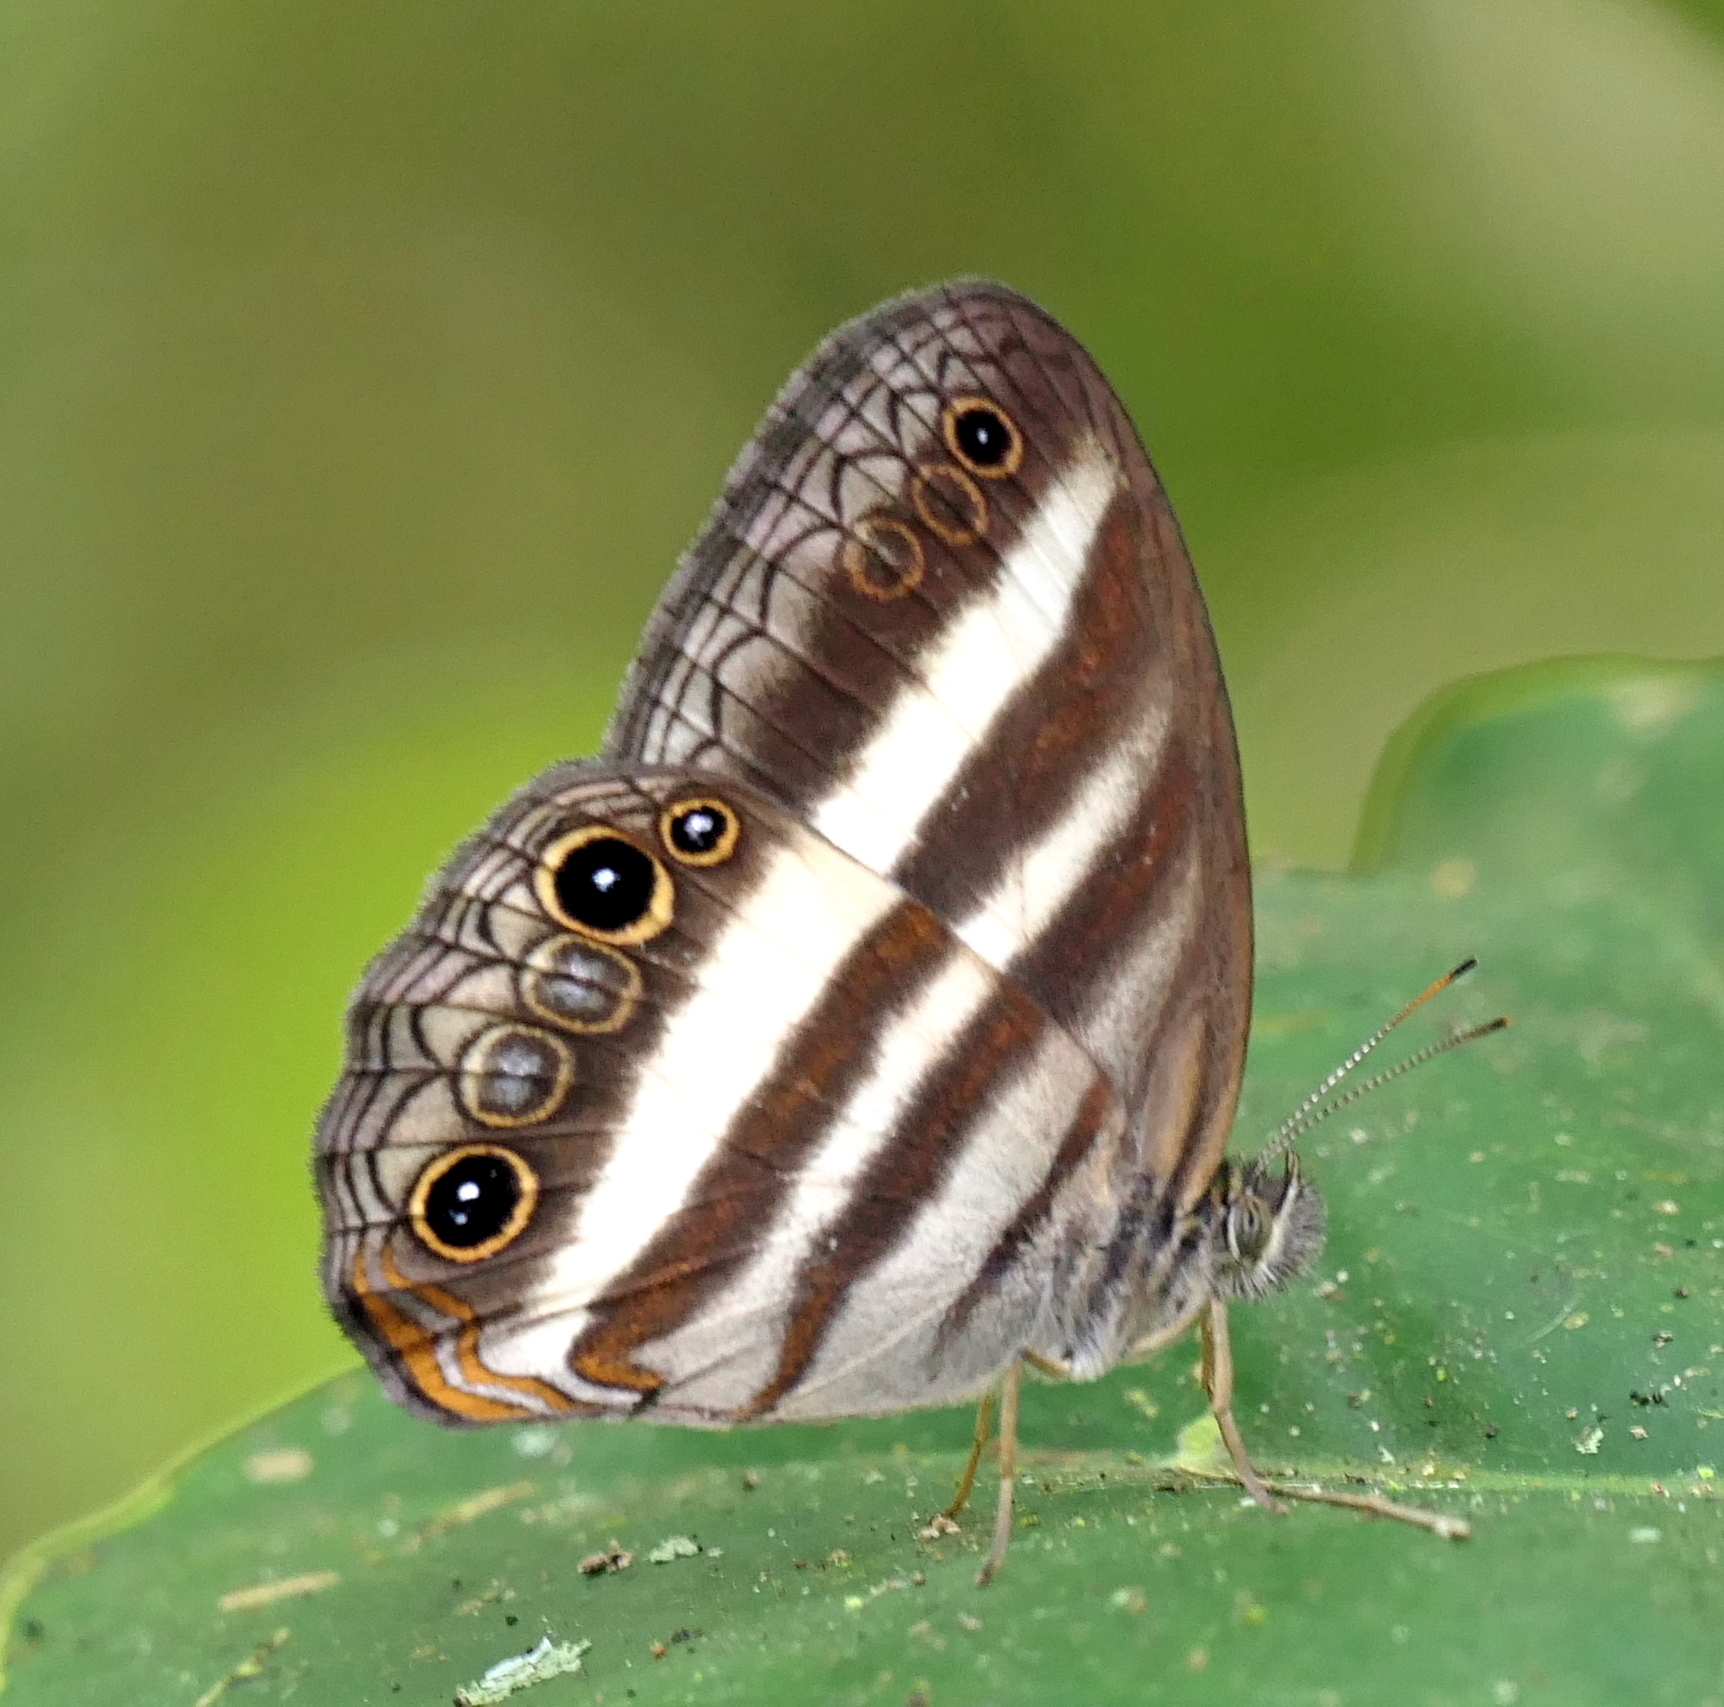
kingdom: Animalia
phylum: Arthropoda
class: Insecta
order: Lepidoptera
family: Nymphalidae
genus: Pareuptychia
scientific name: Pareuptychia hesione
